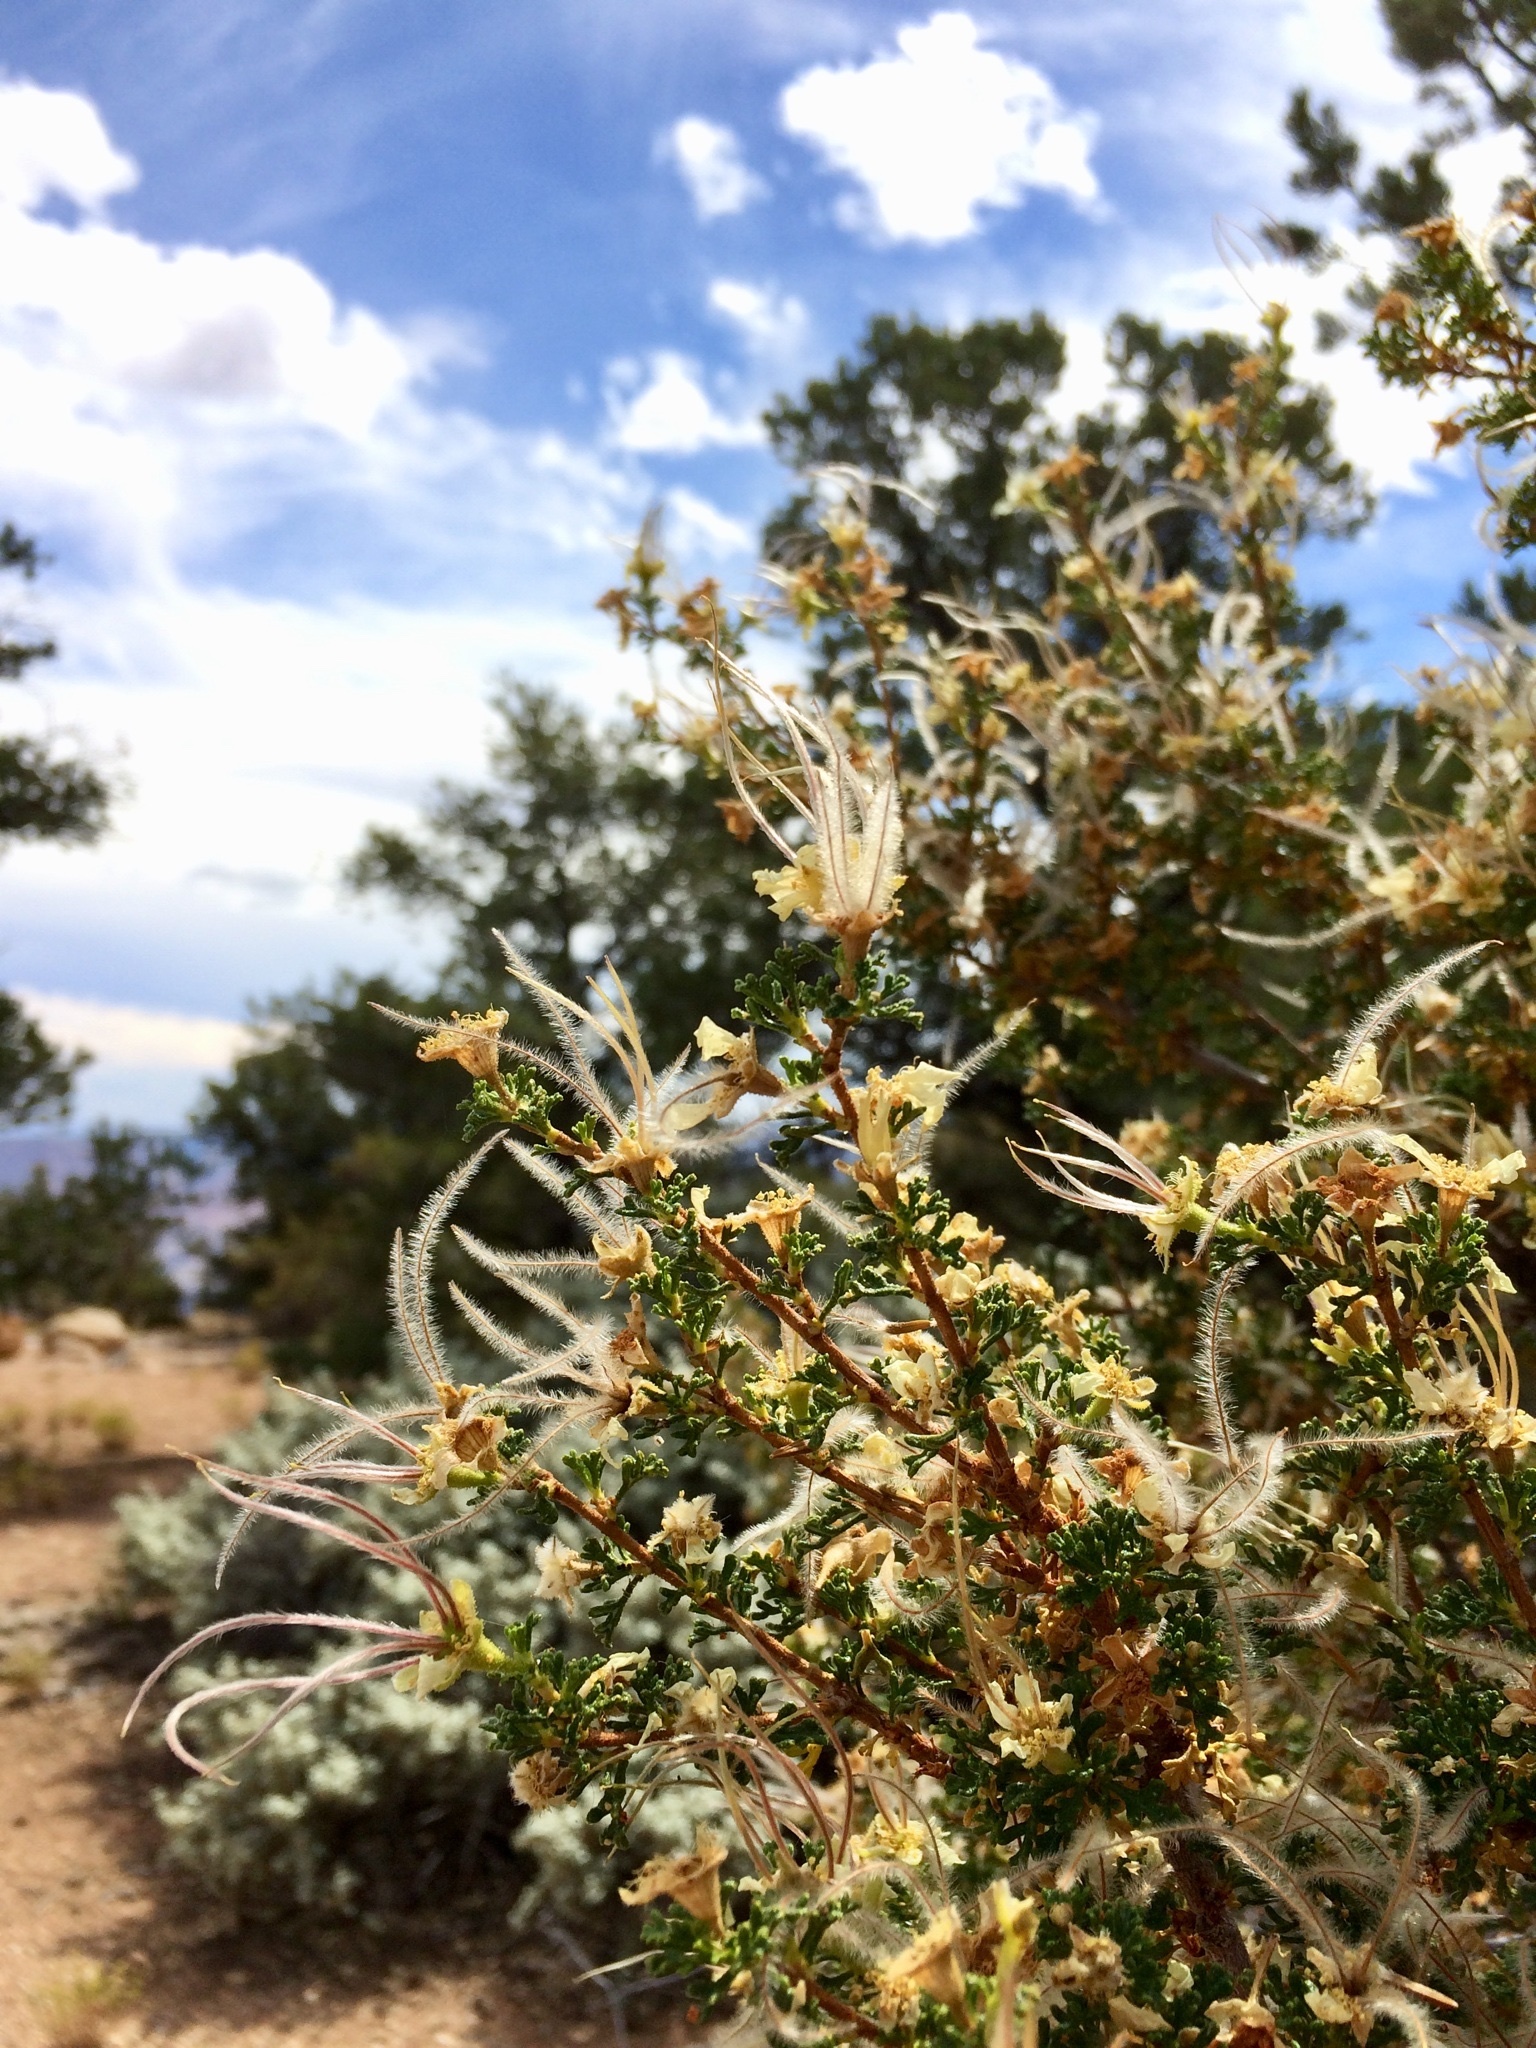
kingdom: Plantae
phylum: Tracheophyta
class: Magnoliopsida
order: Rosales
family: Rosaceae
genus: Purshia
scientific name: Purshia stansburiana
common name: Stansbury's cliffrose
